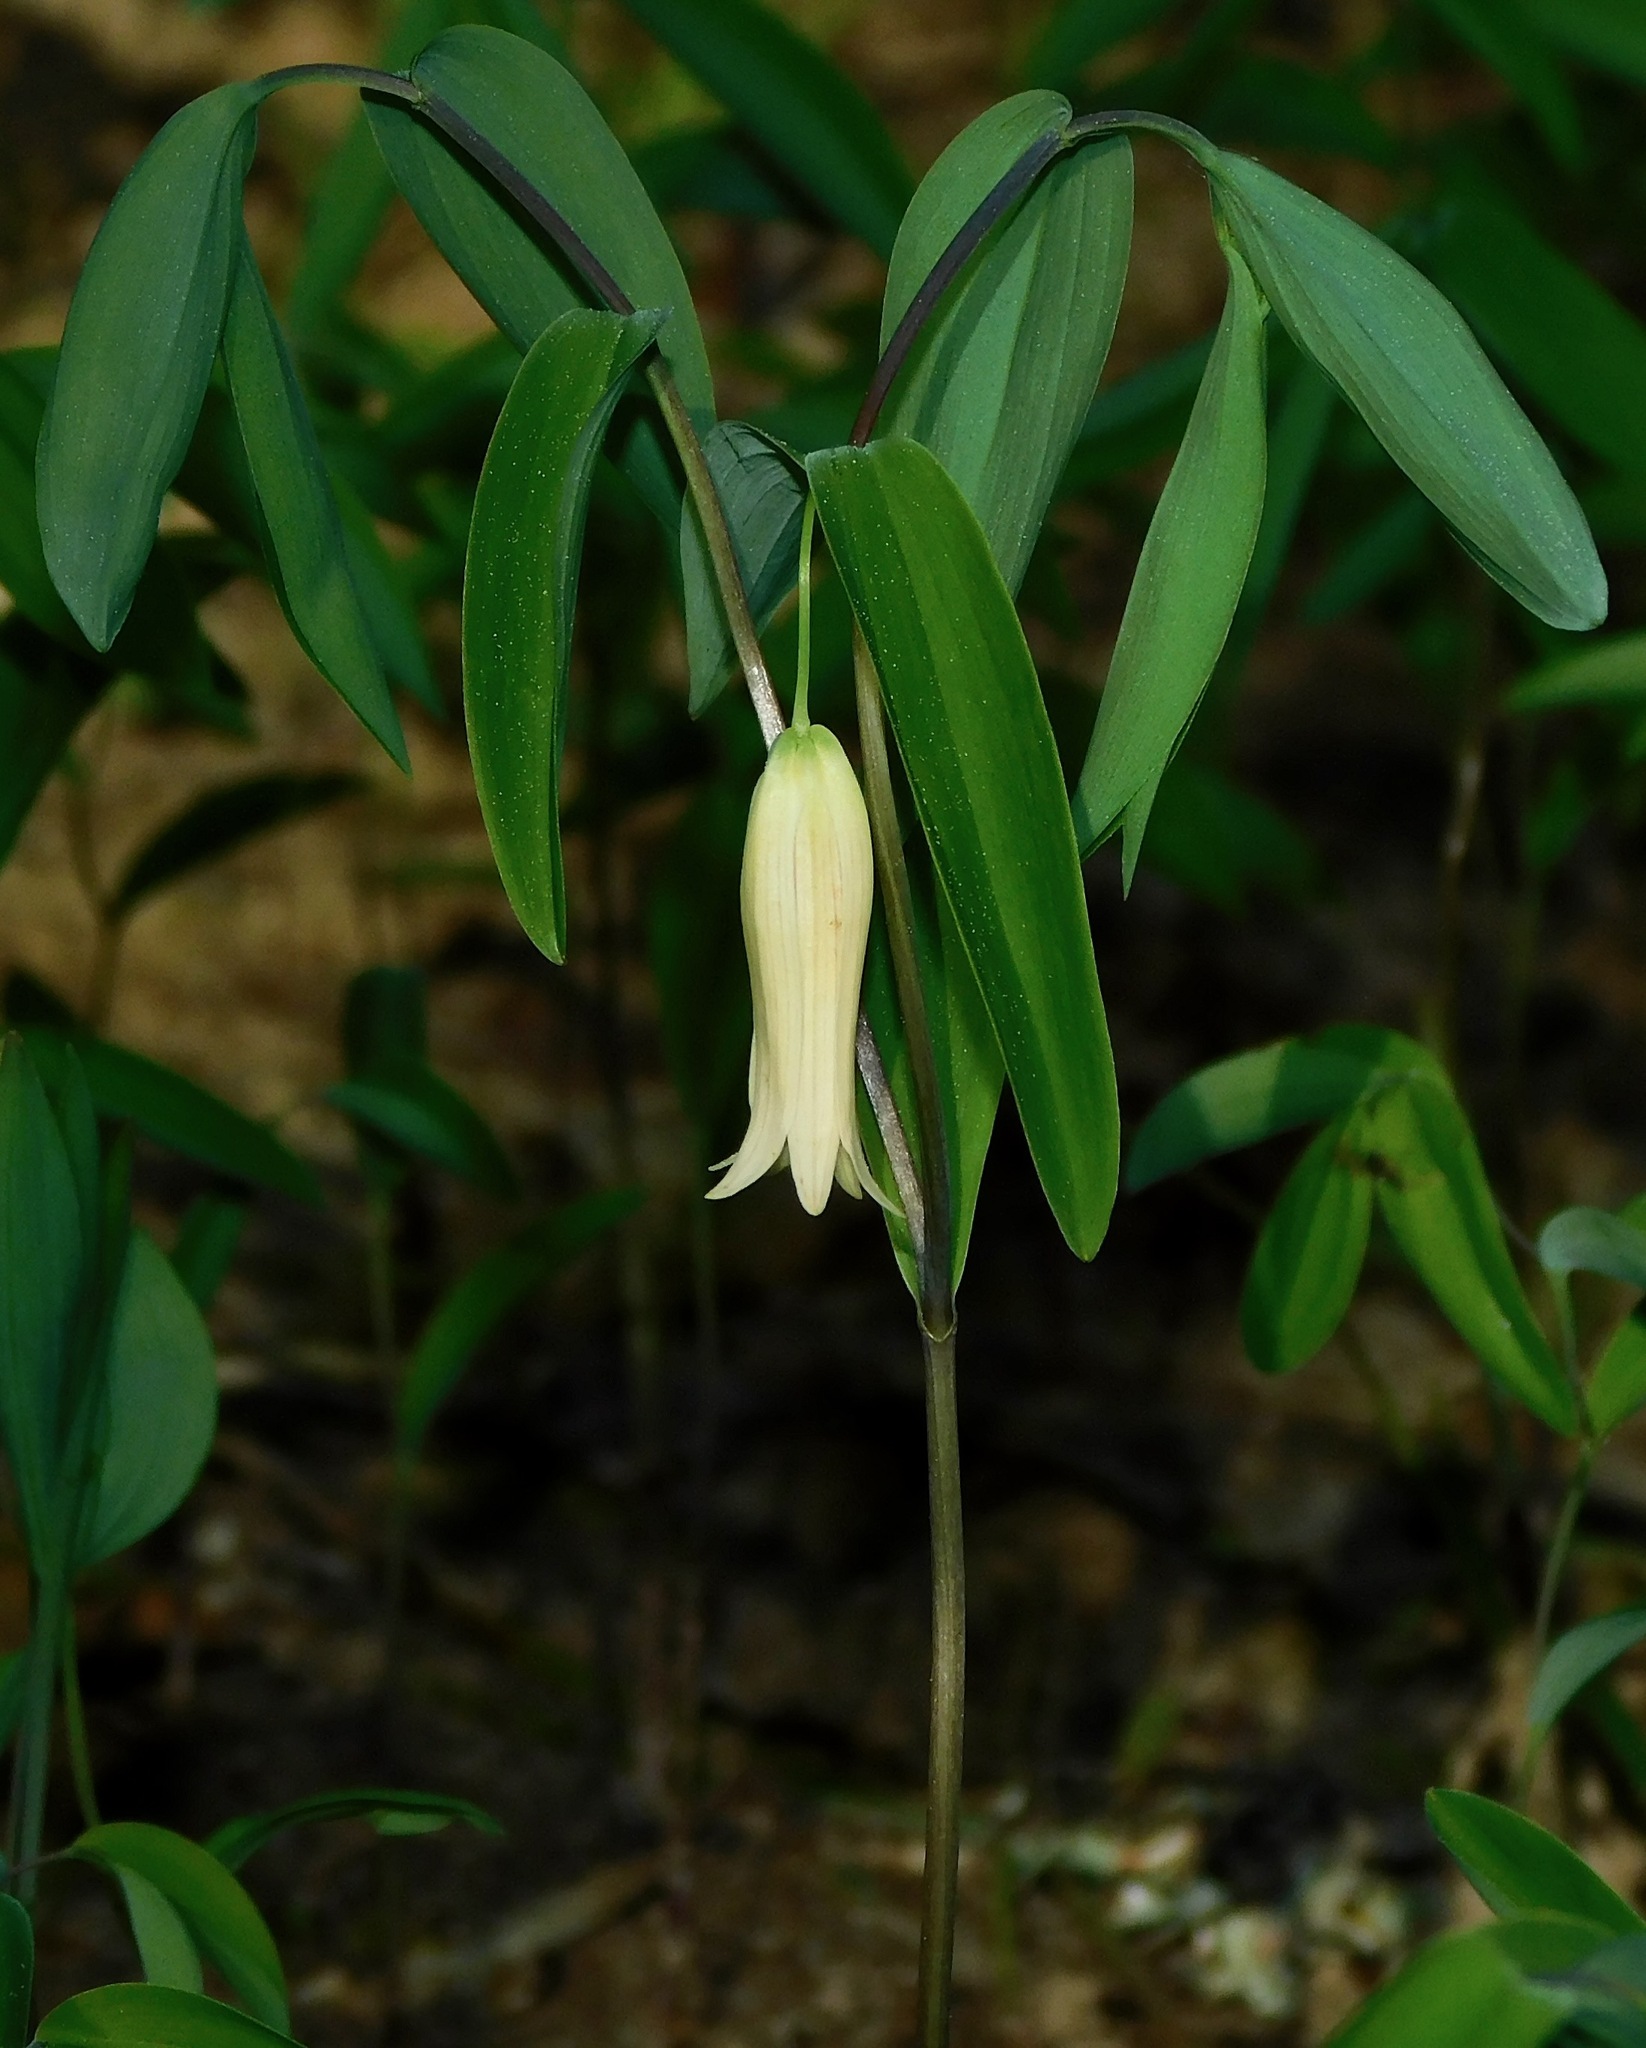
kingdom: Plantae
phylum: Tracheophyta
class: Liliopsida
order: Liliales
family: Colchicaceae
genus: Uvularia
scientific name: Uvularia sessilifolia
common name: Straw-lily
